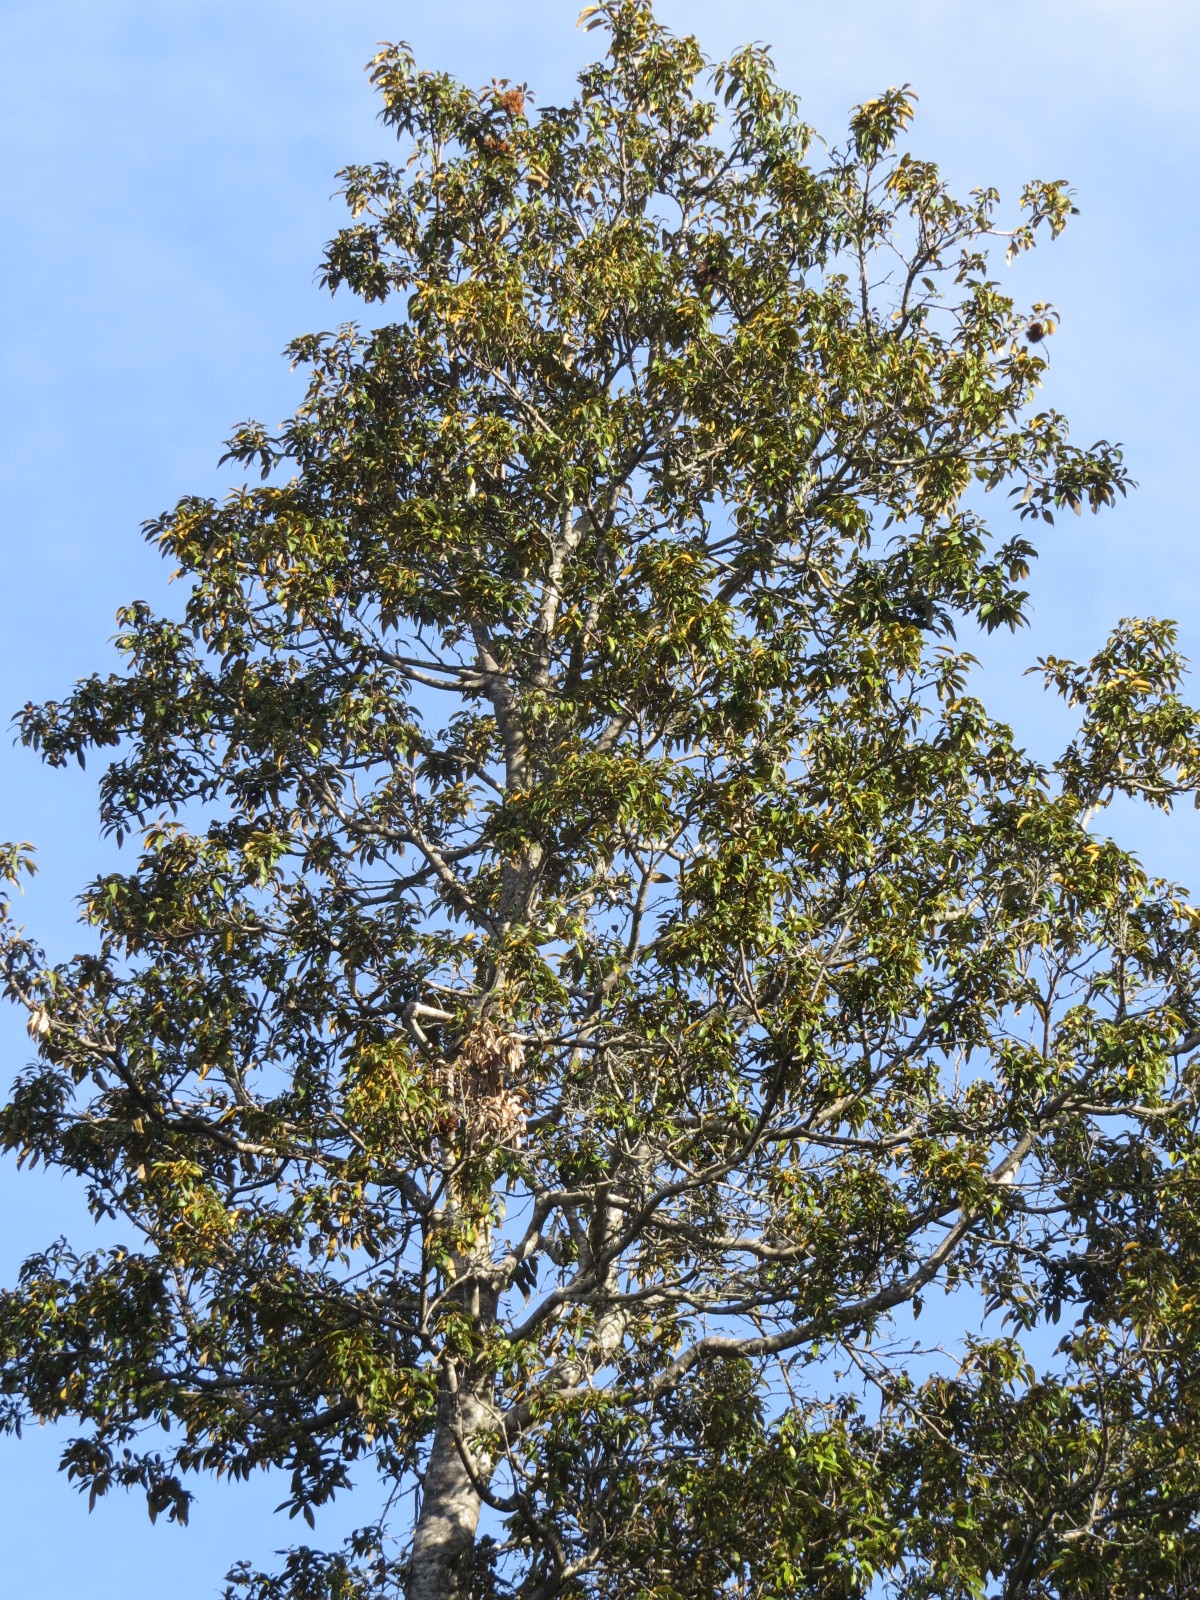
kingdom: Plantae
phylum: Tracheophyta
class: Magnoliopsida
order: Fagales
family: Fagaceae
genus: Chrysolepis
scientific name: Chrysolepis chrysophylla
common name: Giant chinquapin
